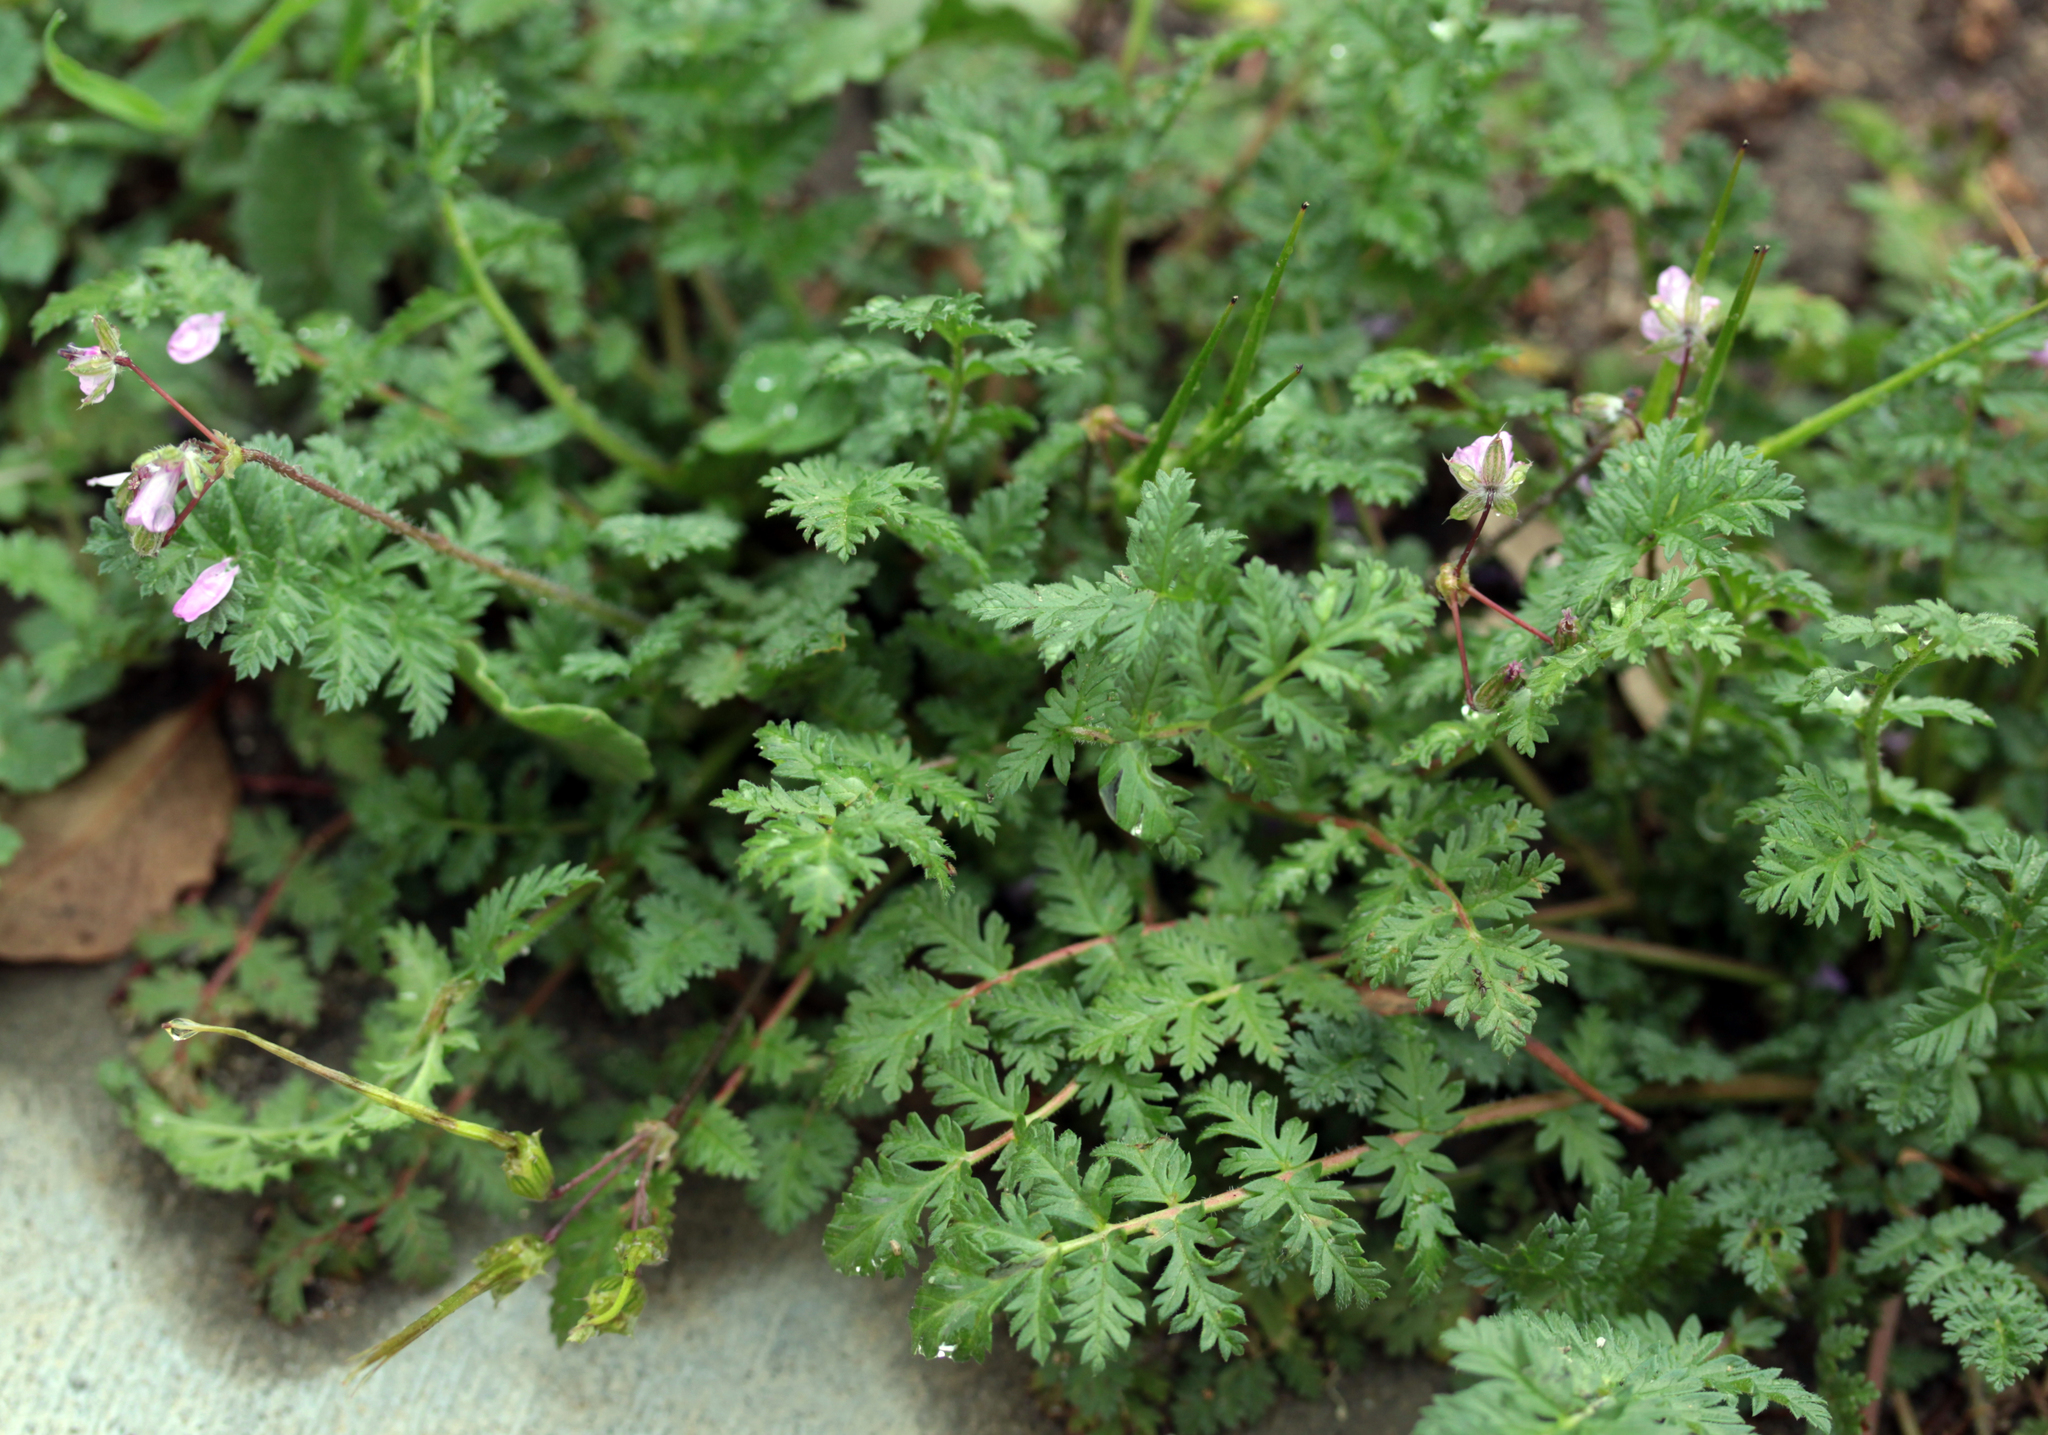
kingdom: Plantae
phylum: Tracheophyta
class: Magnoliopsida
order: Geraniales
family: Geraniaceae
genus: Erodium
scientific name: Erodium cicutarium
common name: Common stork's-bill
